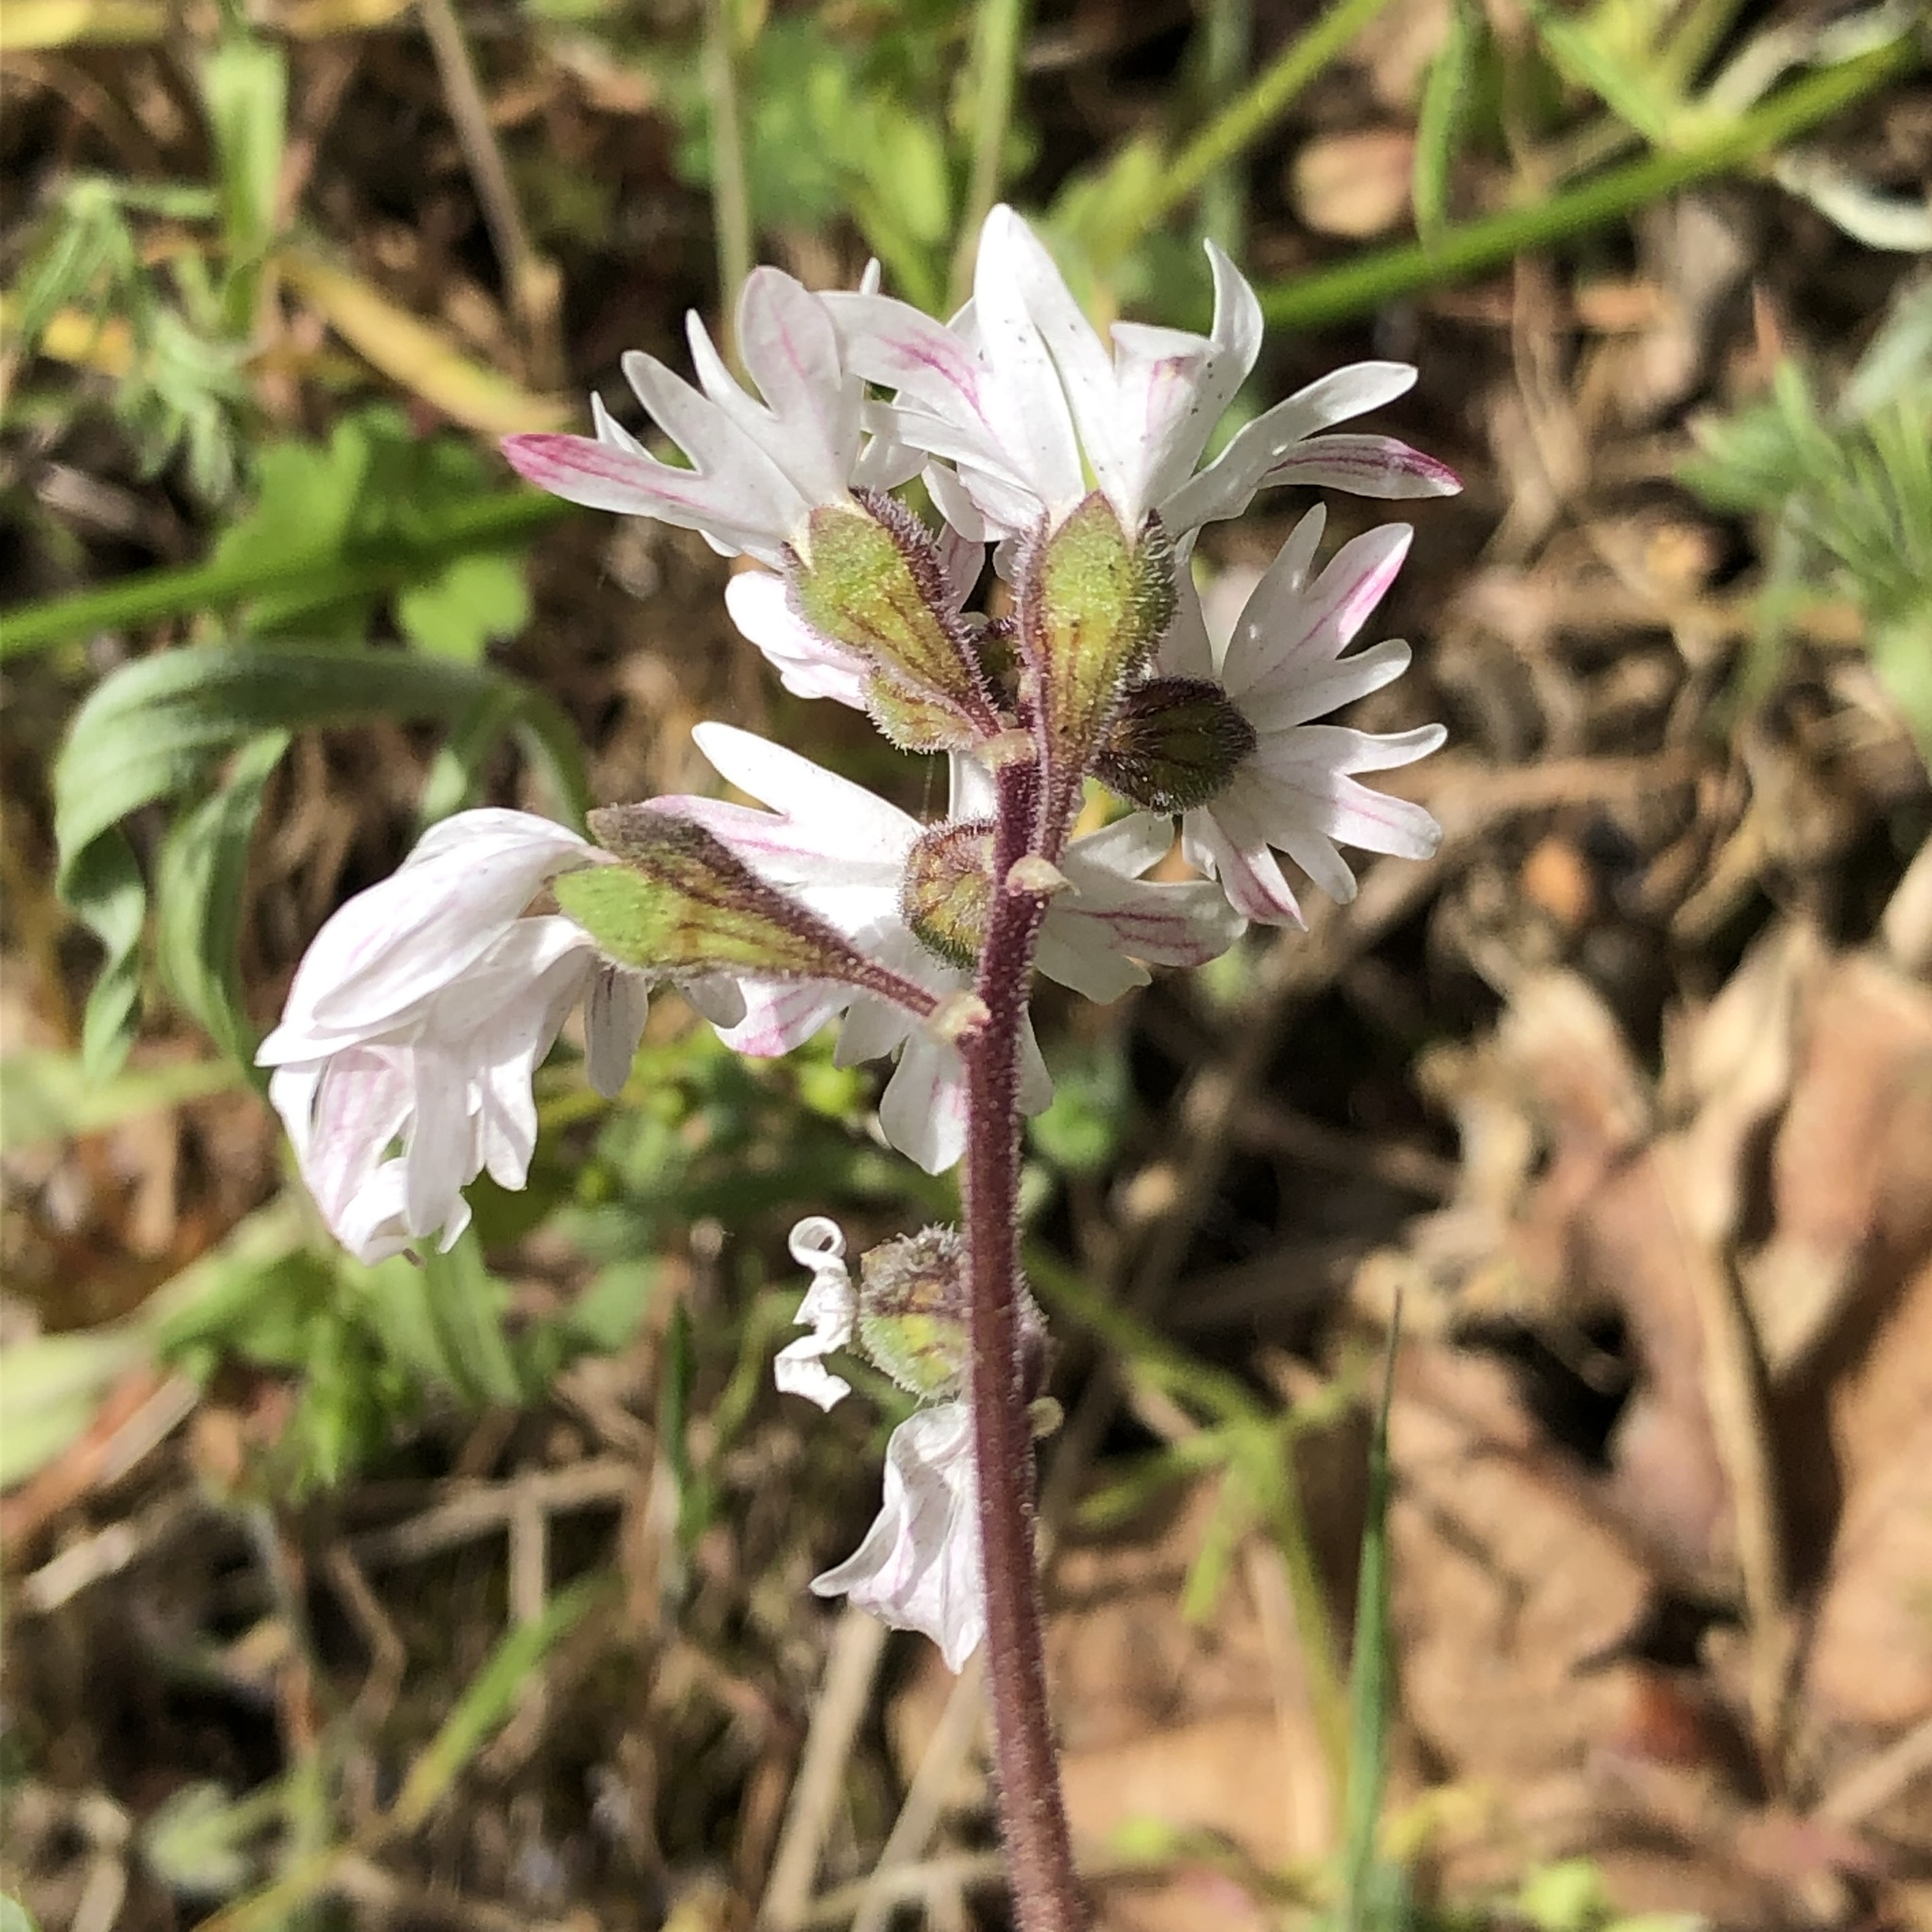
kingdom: Plantae
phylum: Tracheophyta
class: Magnoliopsida
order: Saxifragales
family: Saxifragaceae
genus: Lithophragma
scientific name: Lithophragma parviflorum
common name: Small-flowered fringe-cup
